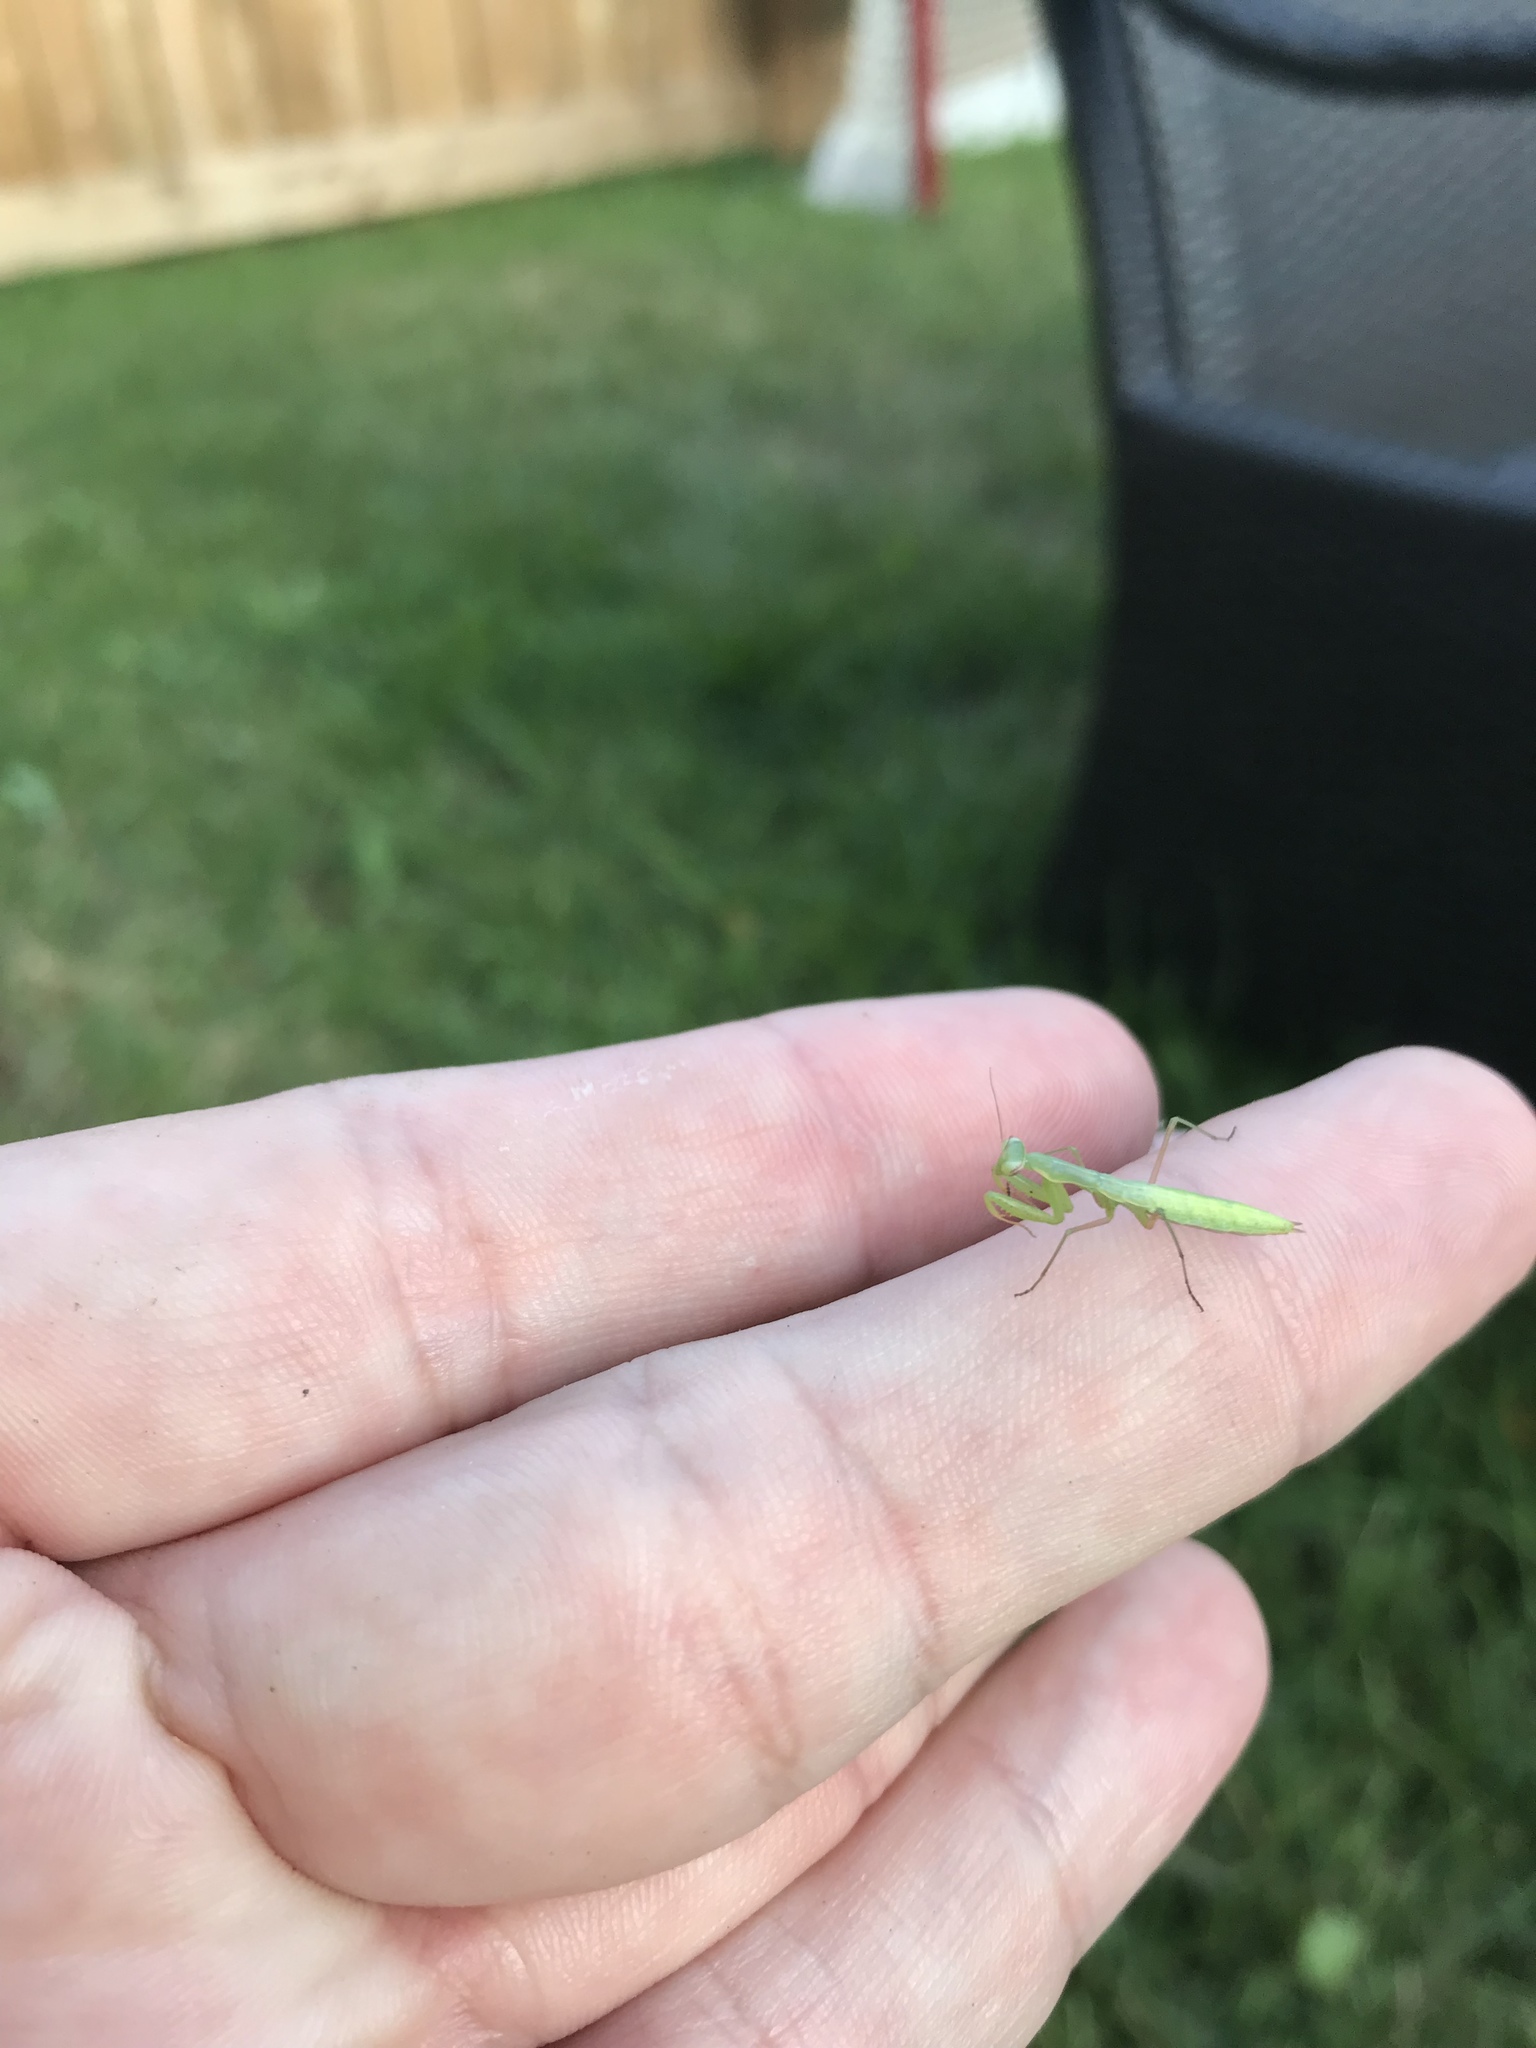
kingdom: Animalia
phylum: Arthropoda
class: Insecta
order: Mantodea
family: Mantidae
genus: Mantis
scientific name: Mantis religiosa
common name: Praying mantis
